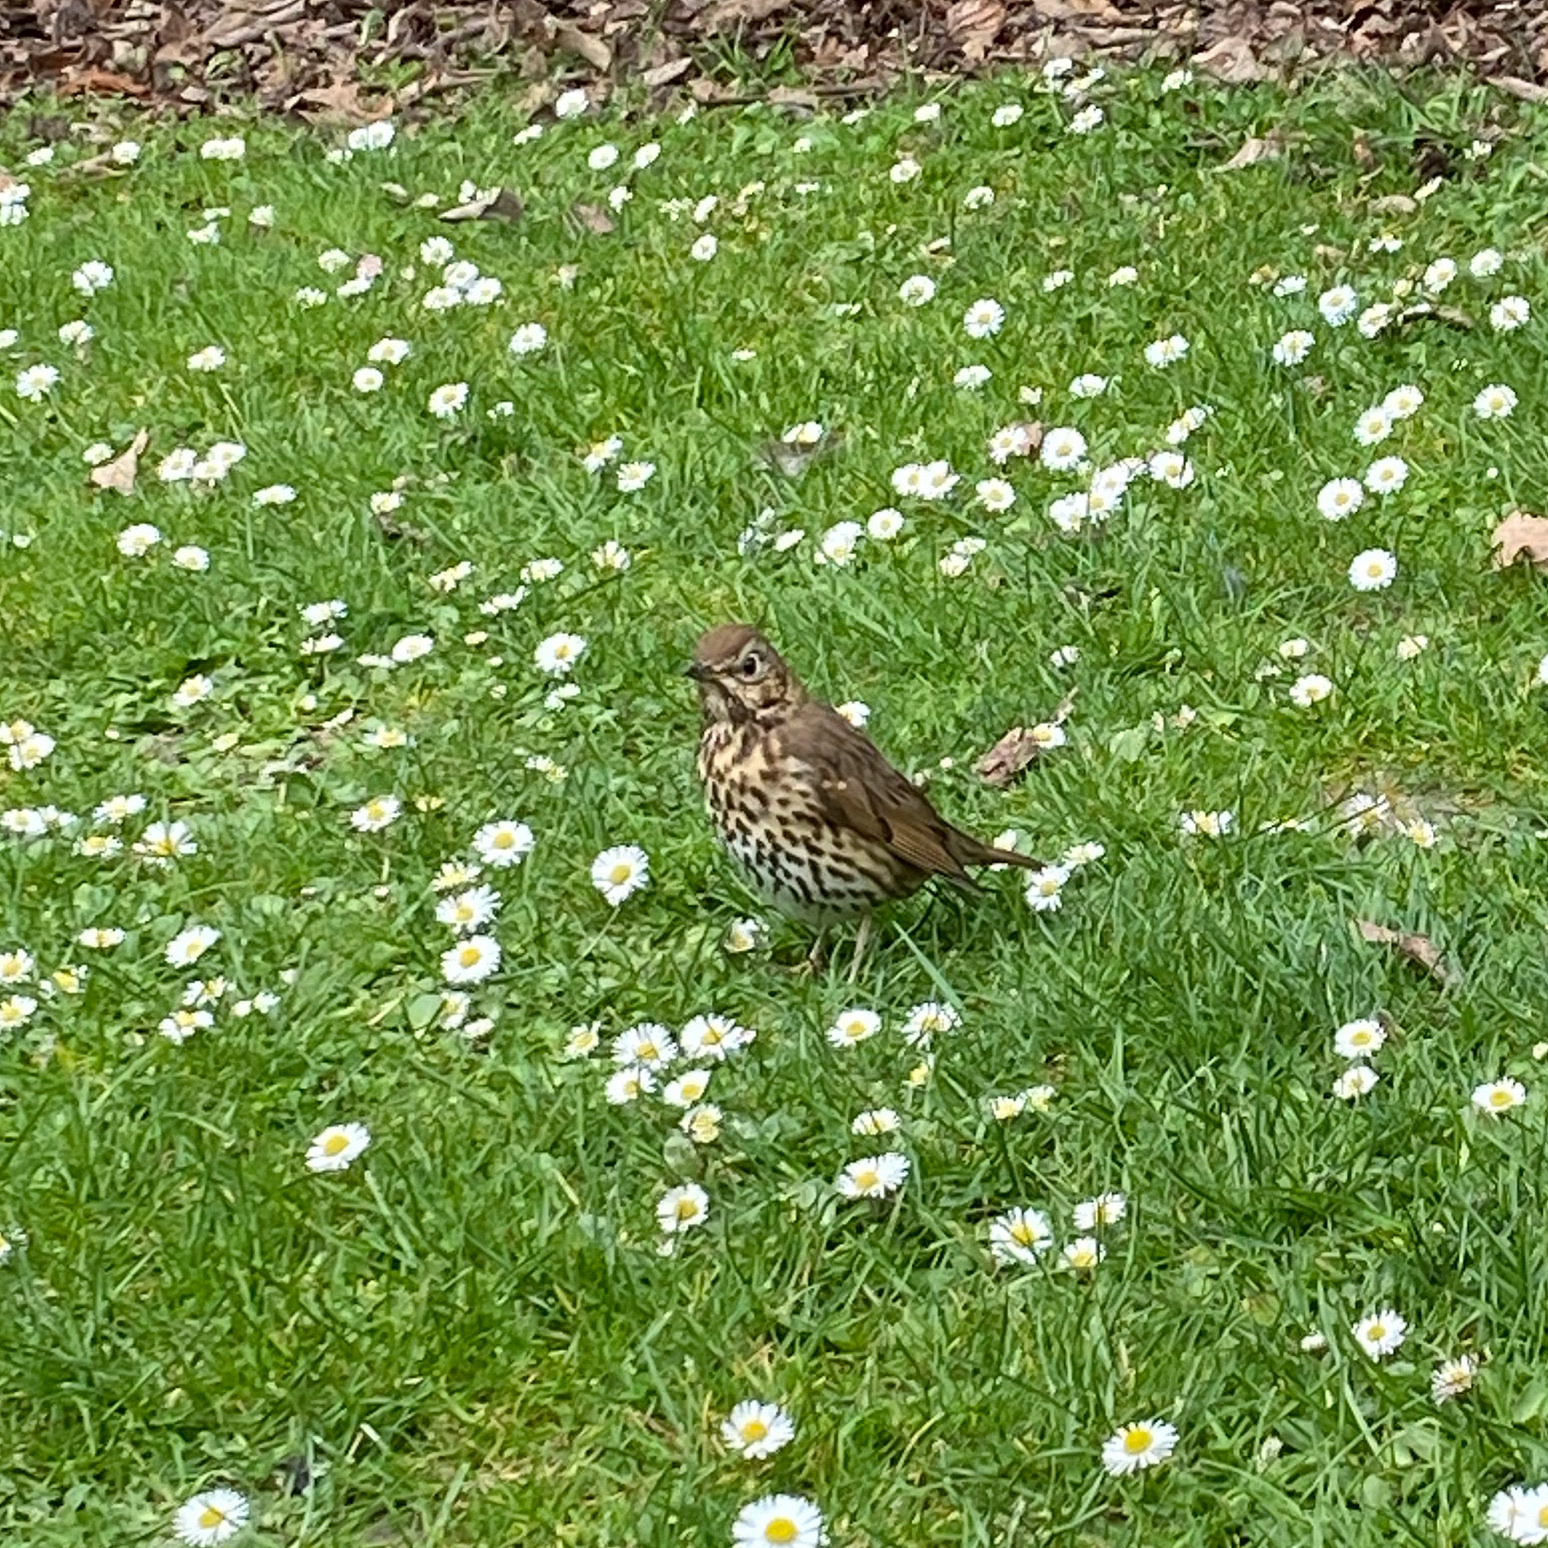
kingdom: Animalia
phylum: Chordata
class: Aves
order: Passeriformes
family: Turdidae
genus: Turdus
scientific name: Turdus philomelos
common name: Song thrush
